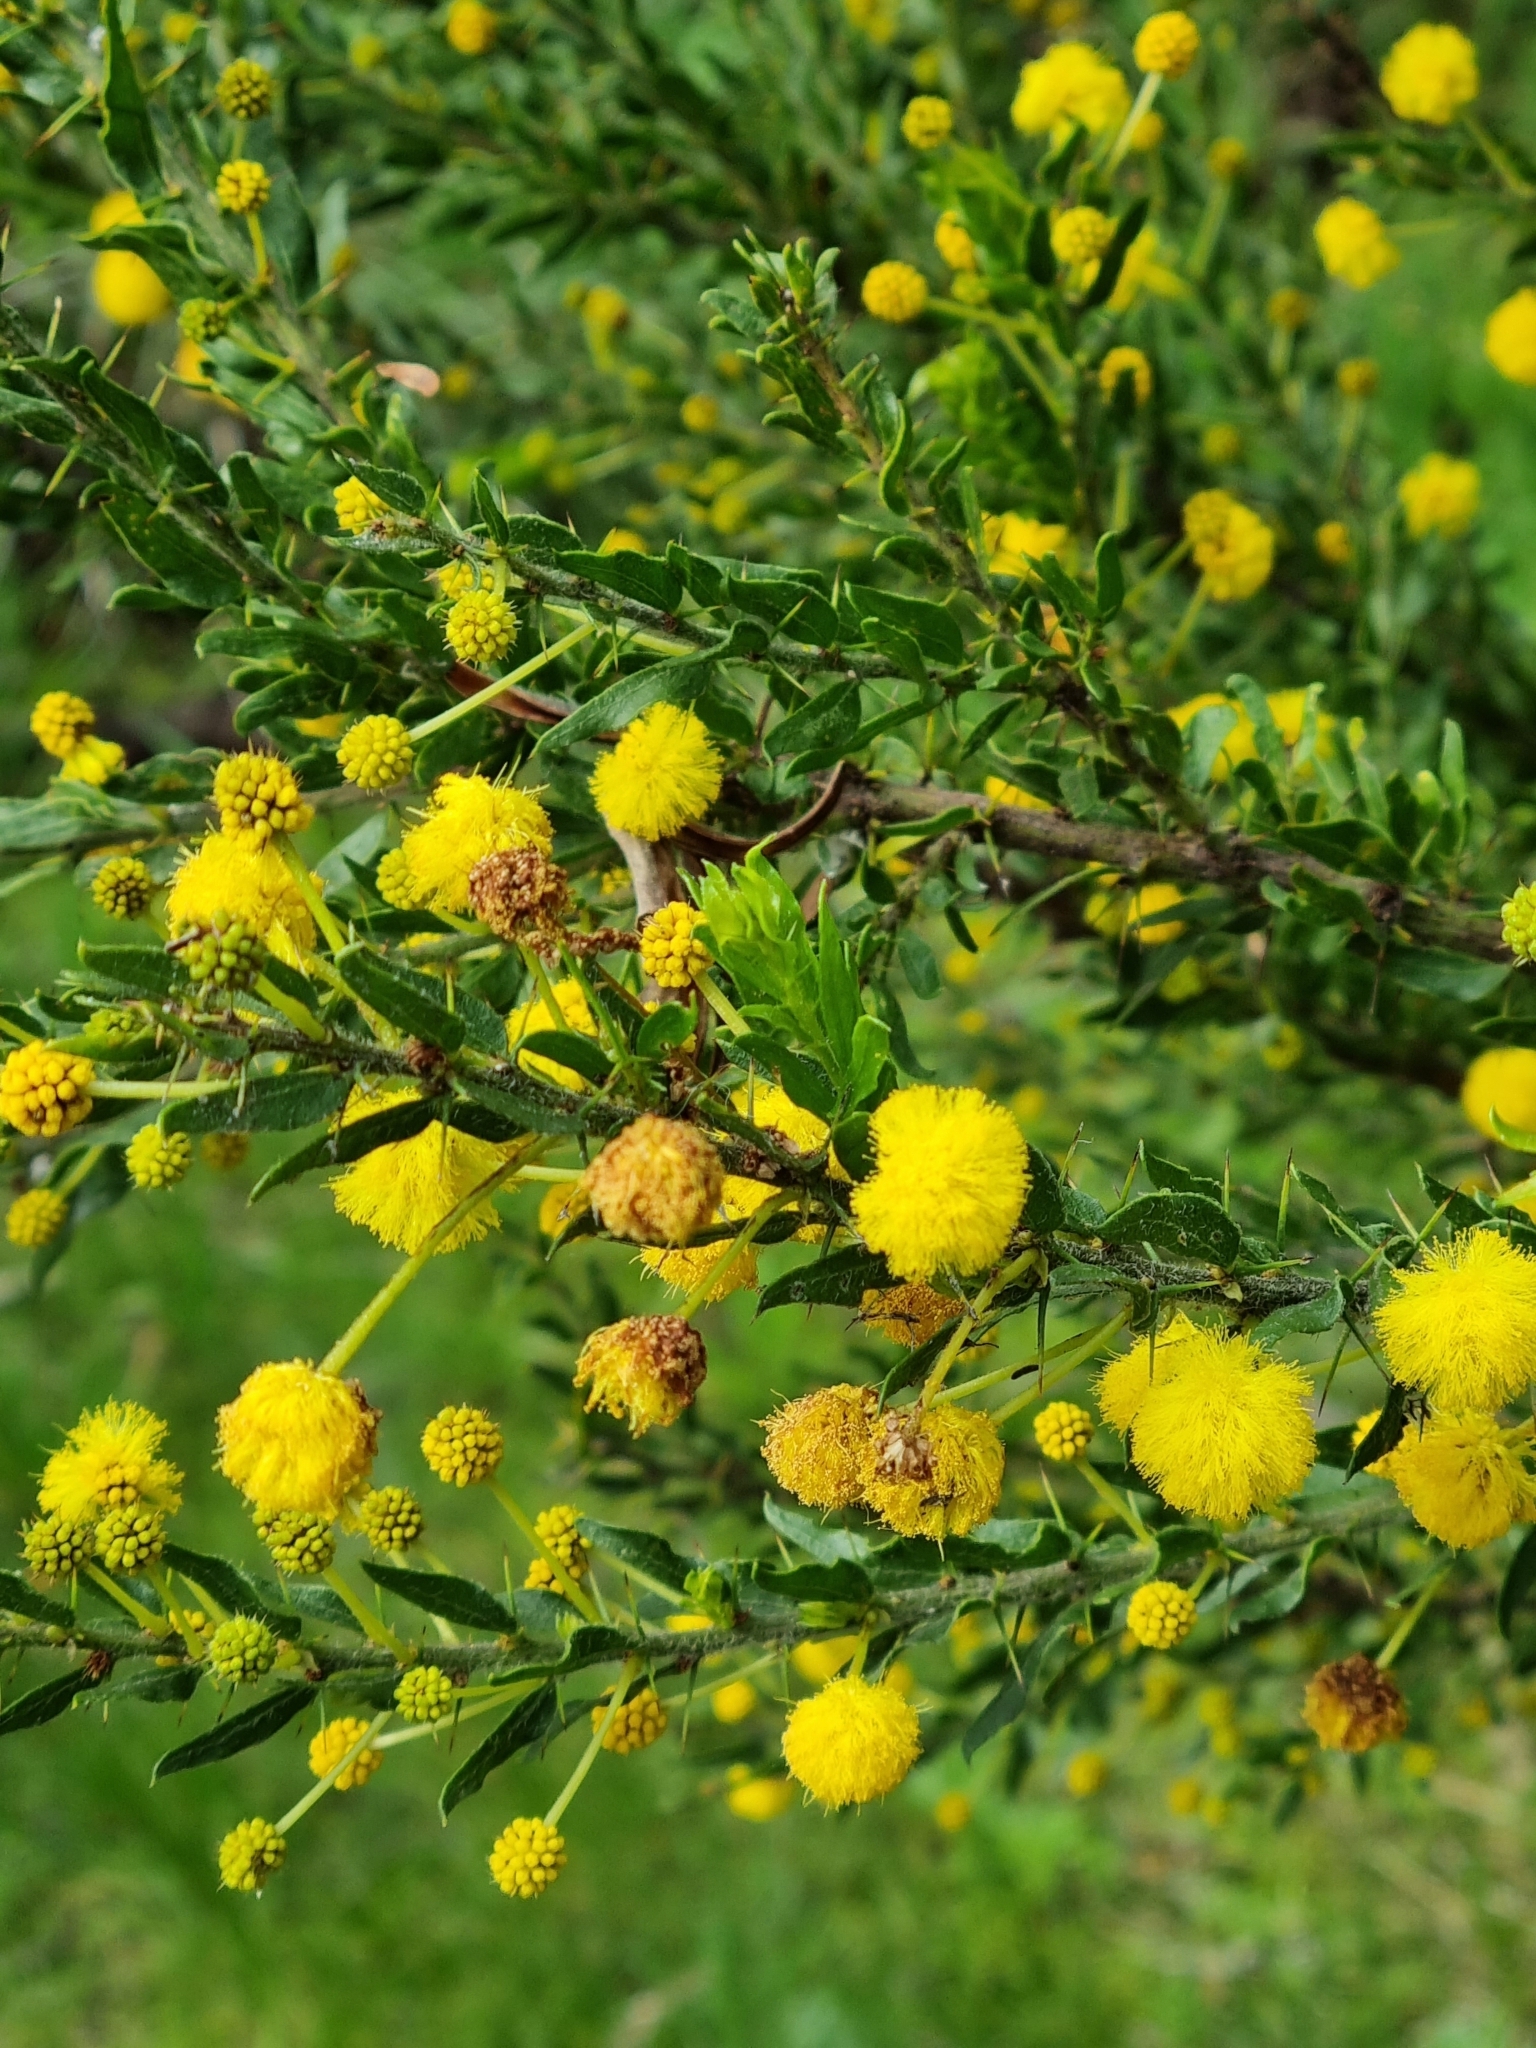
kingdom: Plantae
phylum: Tracheophyta
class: Magnoliopsida
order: Fabales
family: Fabaceae
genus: Acacia
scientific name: Acacia paradoxa
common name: Paradox acacia
